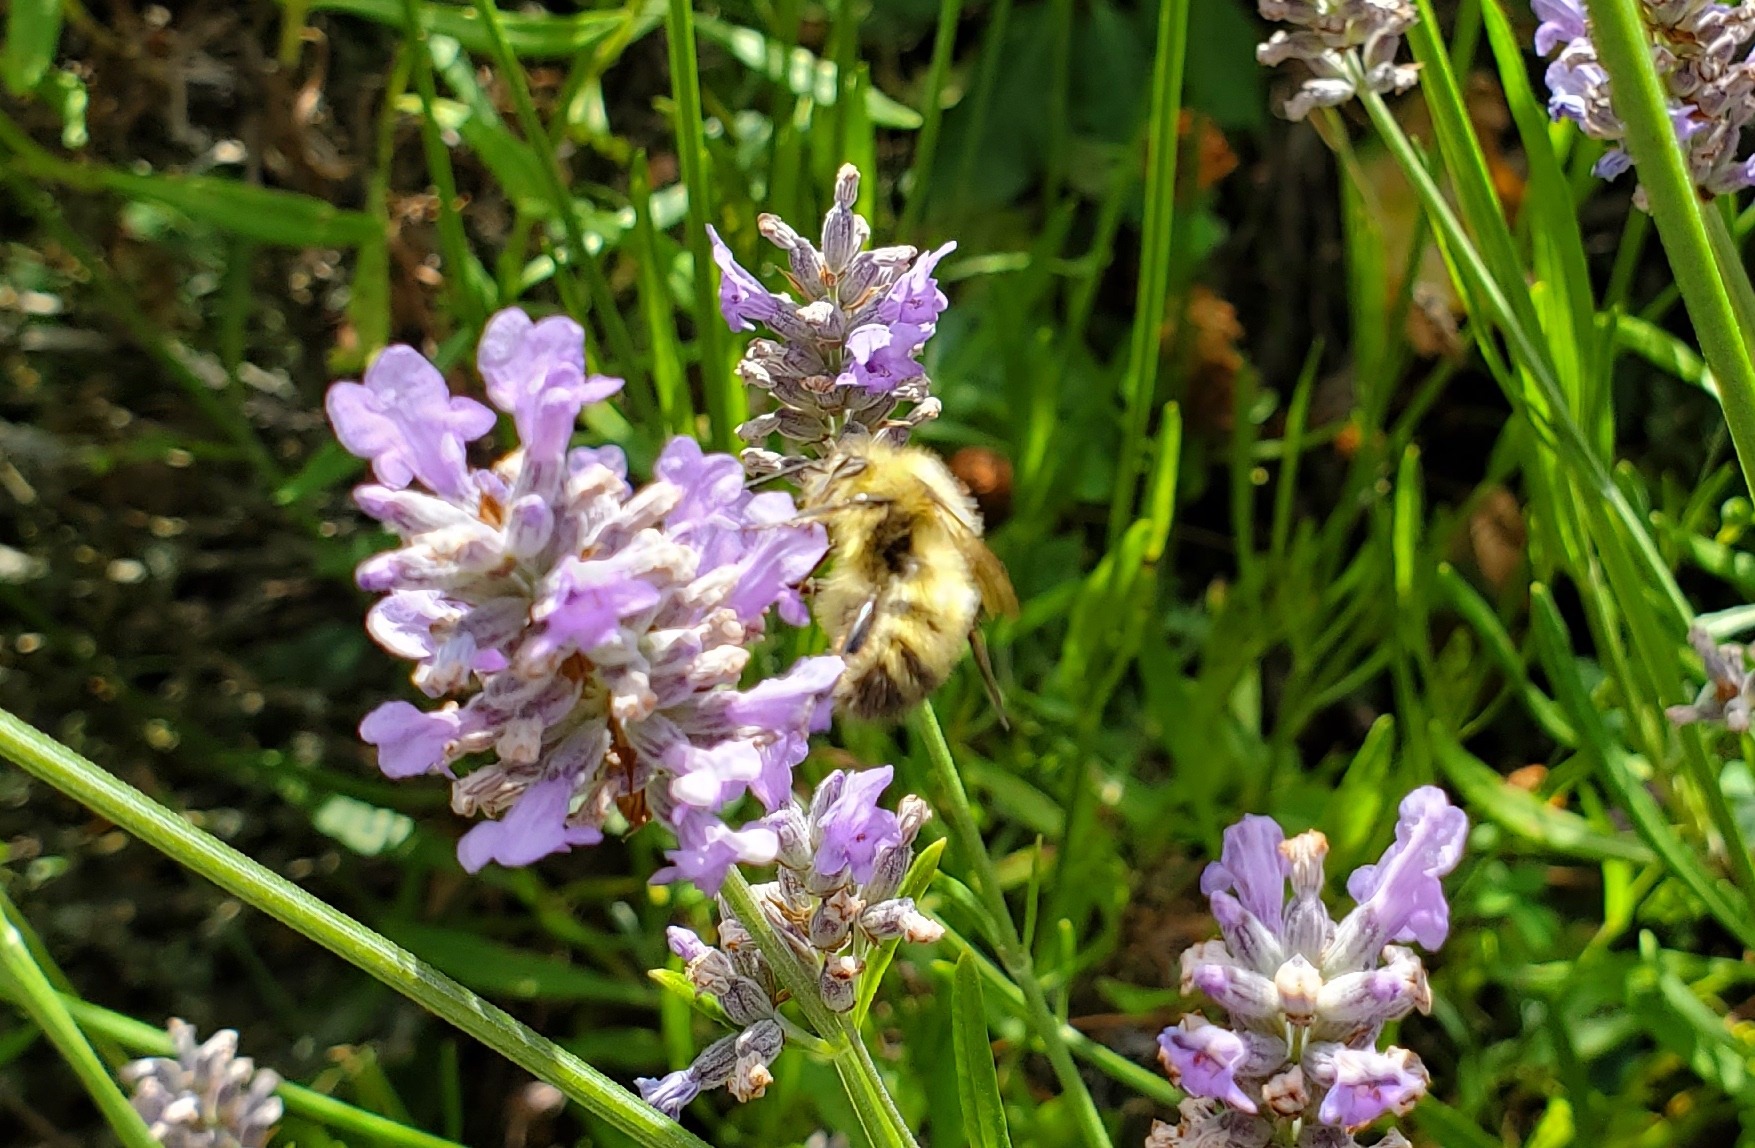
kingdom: Animalia
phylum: Arthropoda
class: Insecta
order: Hymenoptera
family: Apidae
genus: Bombus
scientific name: Bombus flavifrons
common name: Yellow head bumble bee
